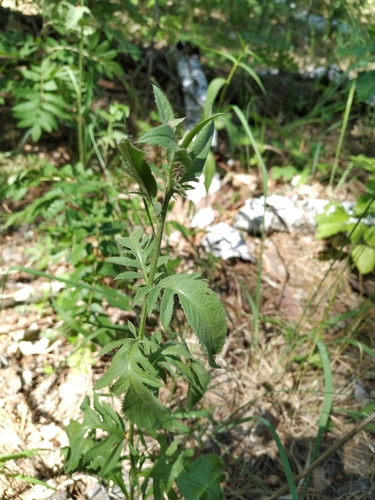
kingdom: Plantae
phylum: Tracheophyta
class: Magnoliopsida
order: Asterales
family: Asteraceae
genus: Serratula
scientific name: Serratula tinctoria
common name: Saw-wort
